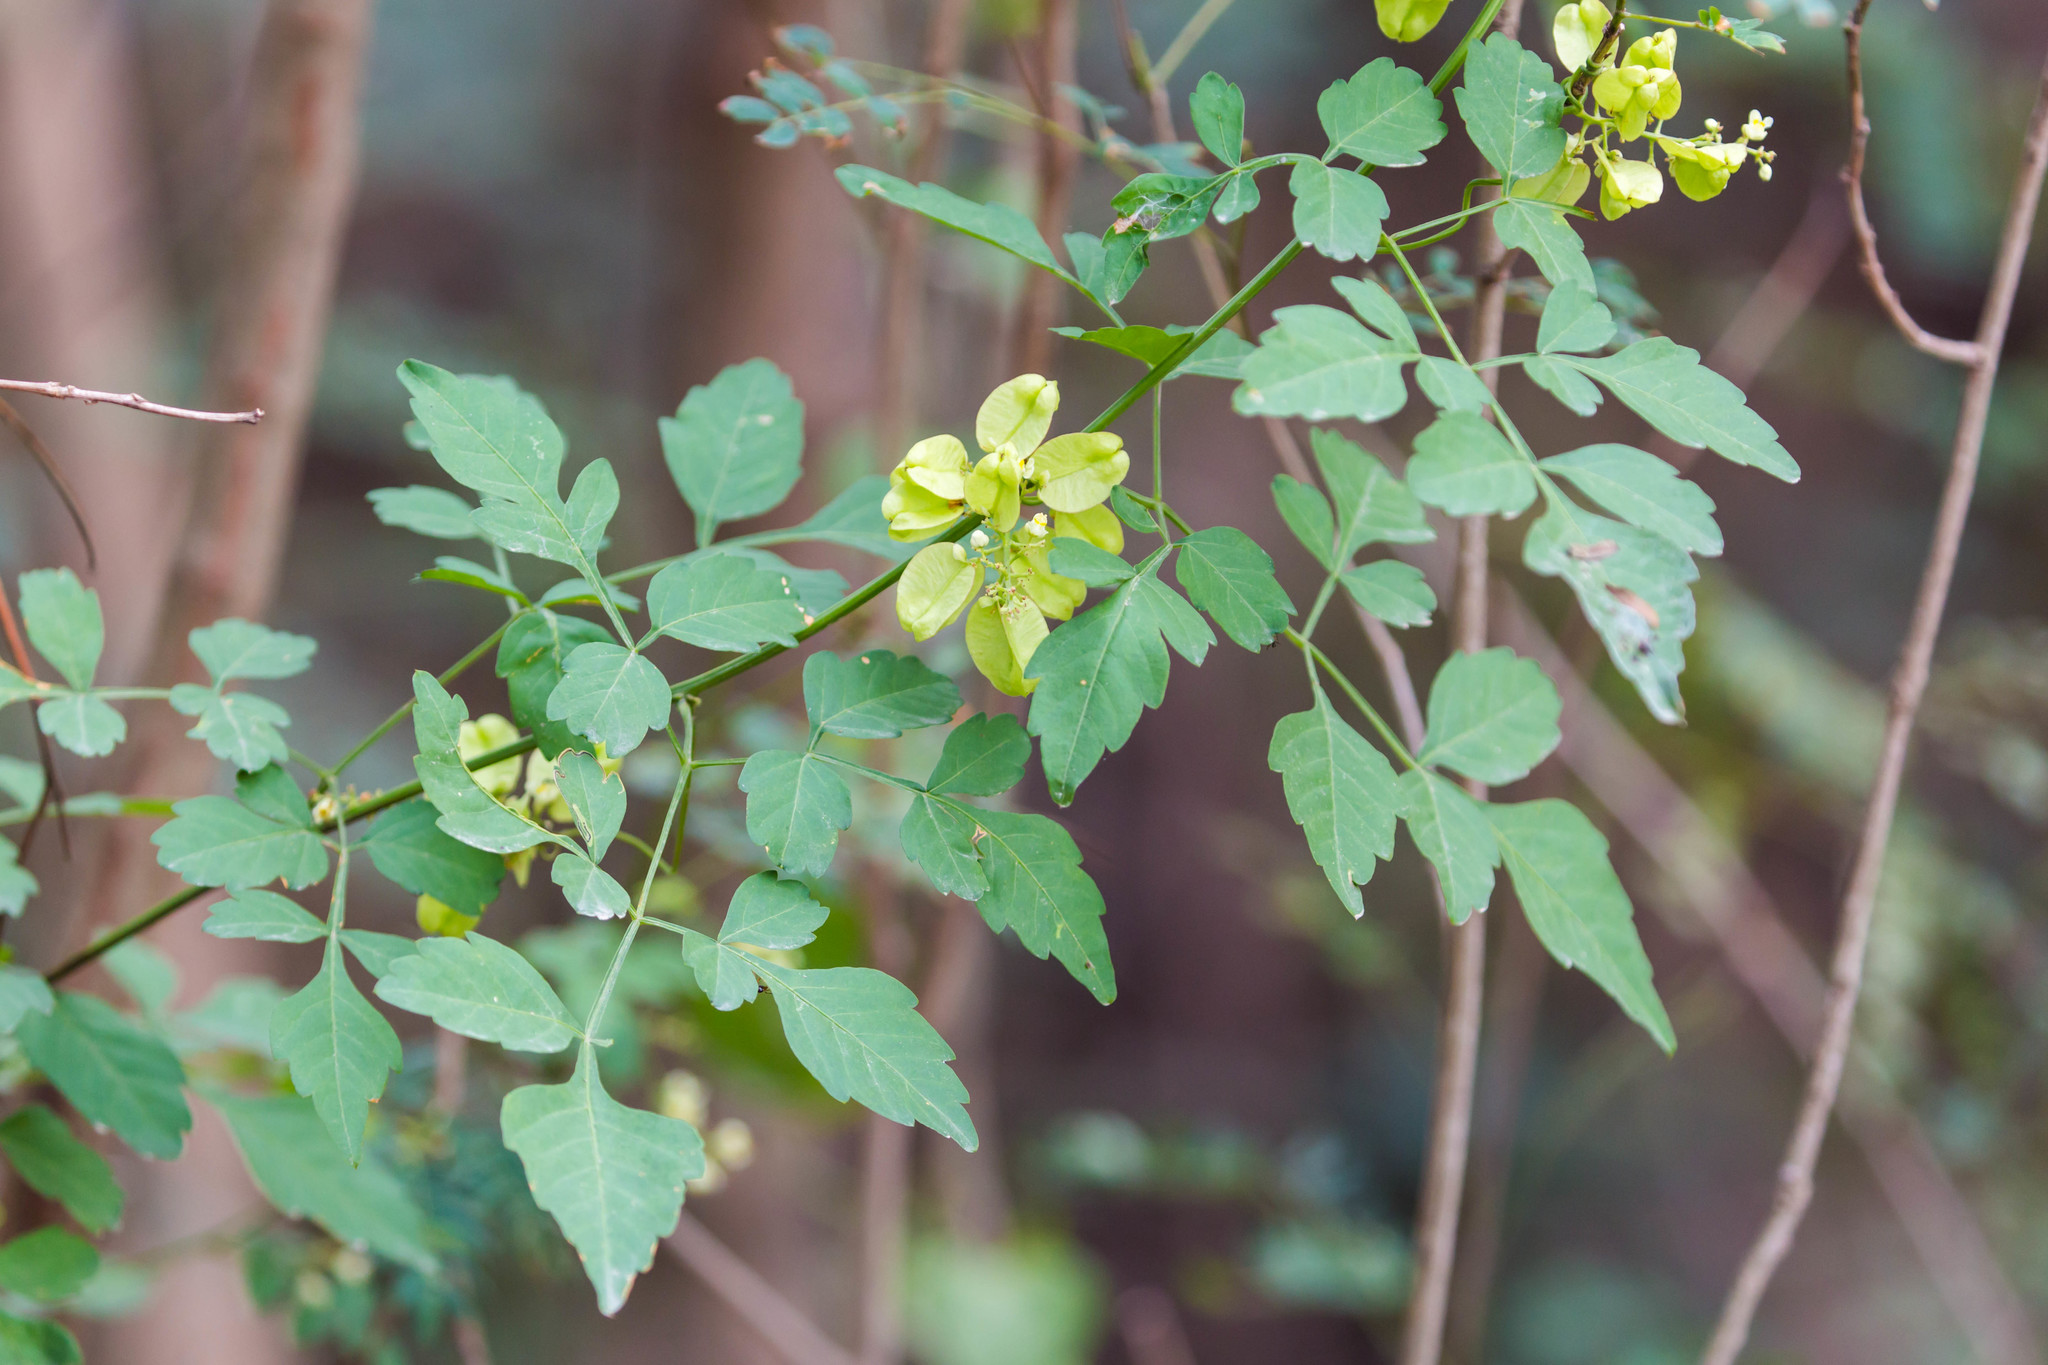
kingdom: Plantae
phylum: Tracheophyta
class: Magnoliopsida
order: Sapindales
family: Sapindaceae
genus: Serjania
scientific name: Serjania brachycarpa
